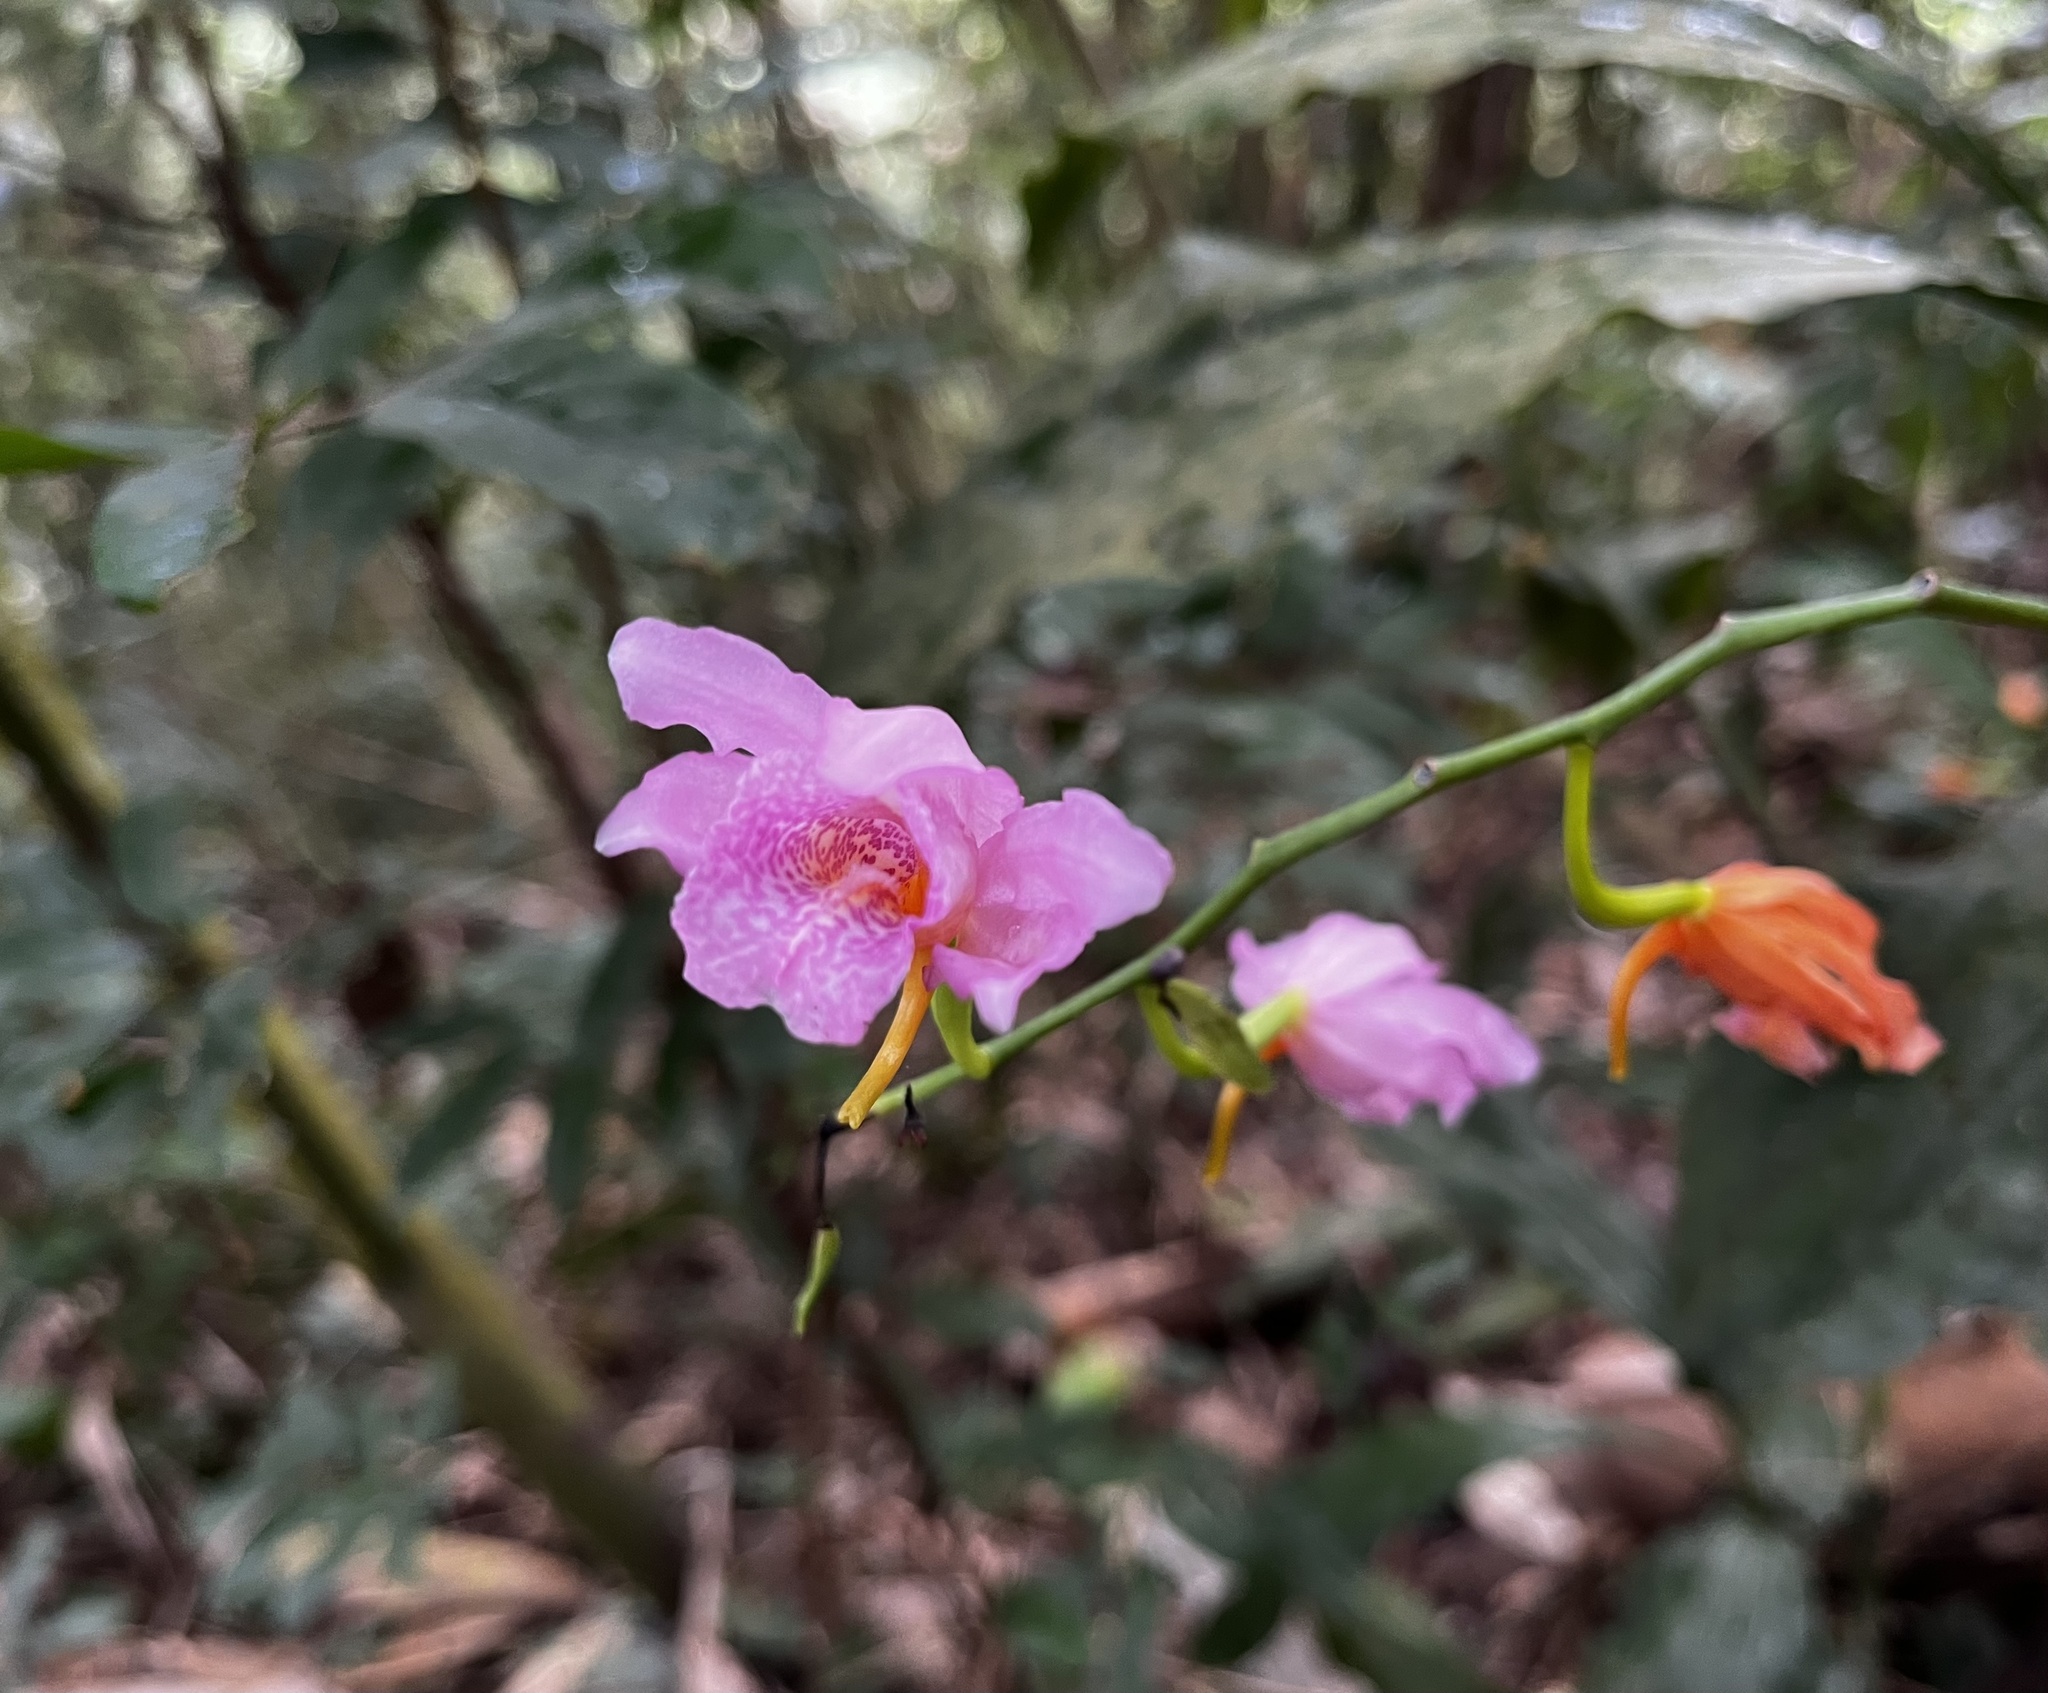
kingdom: Plantae
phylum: Tracheophyta
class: Liliopsida
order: Asparagales
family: Orchidaceae
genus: Calanthe
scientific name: Calanthe mishmensis
